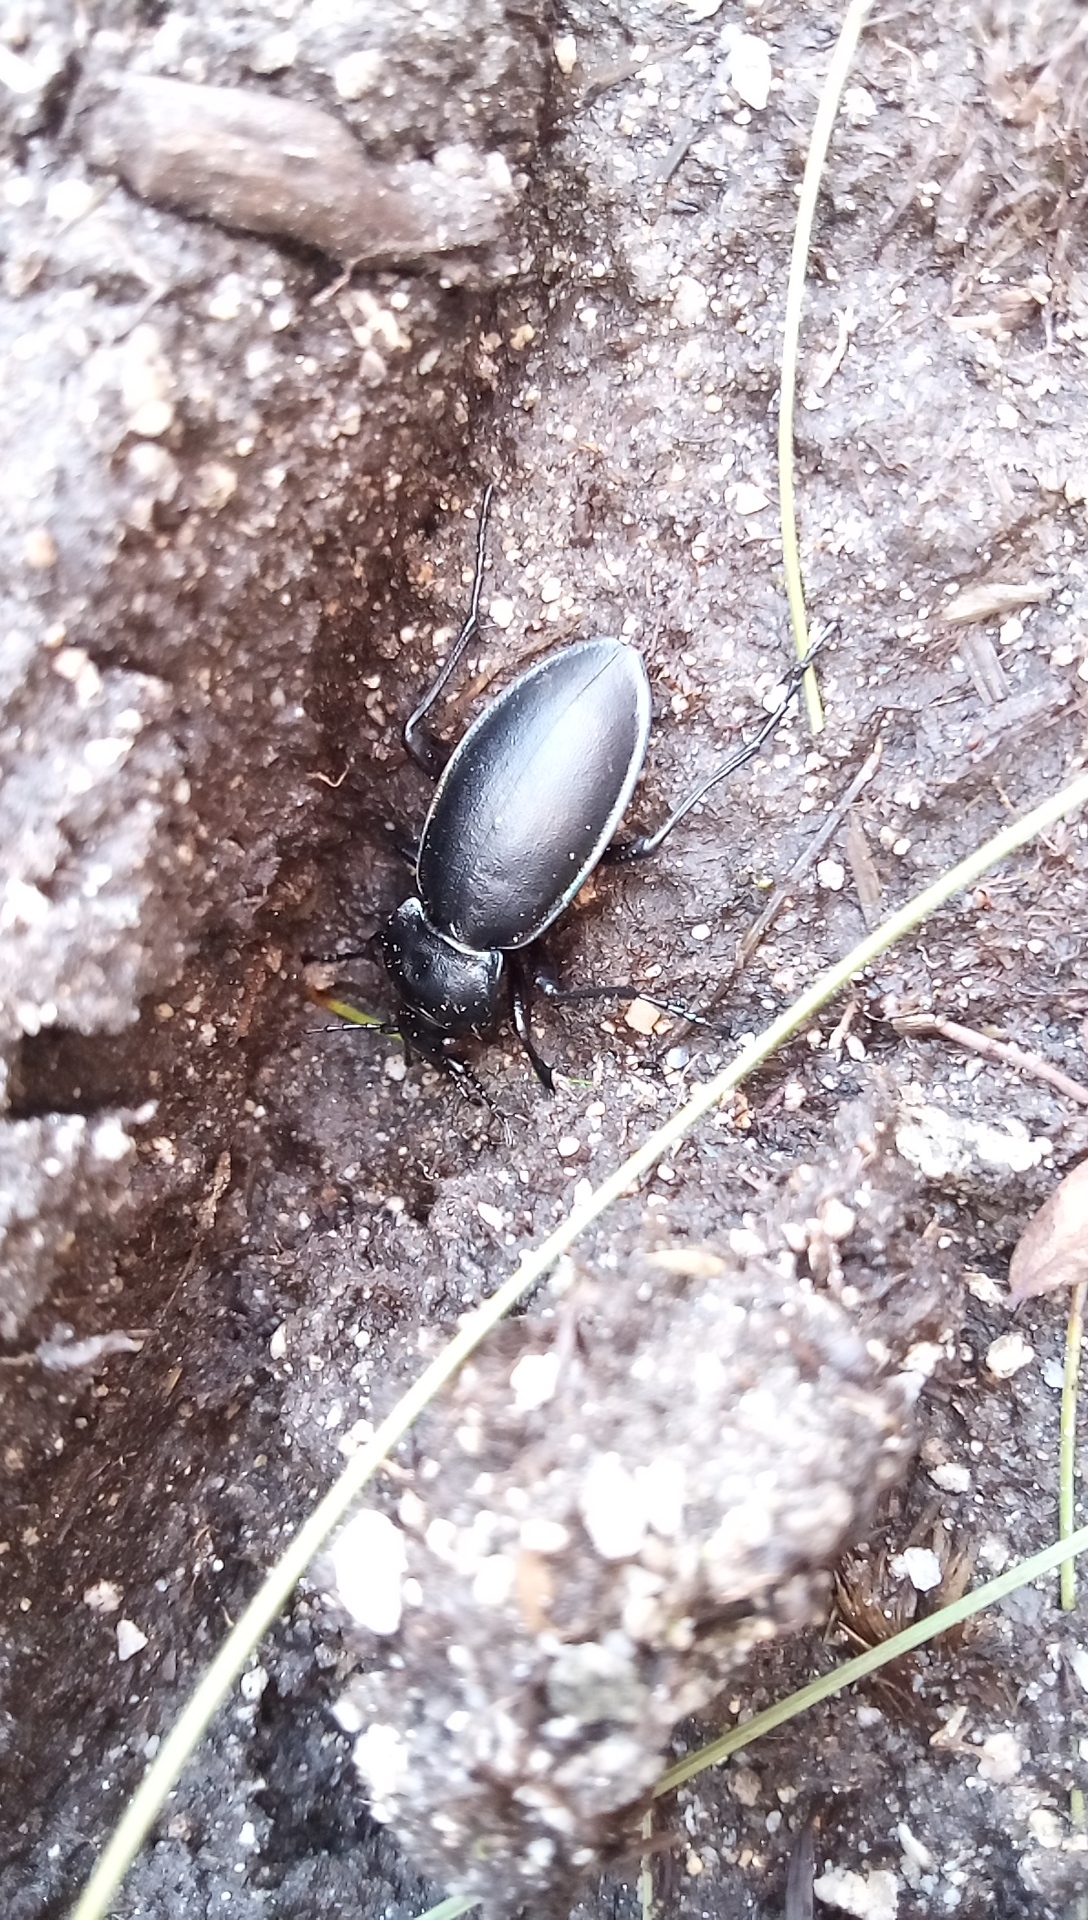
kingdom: Animalia
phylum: Arthropoda
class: Insecta
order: Coleoptera
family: Carabidae
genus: Carabus
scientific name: Carabus violaceus
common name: Violet ground beetle
